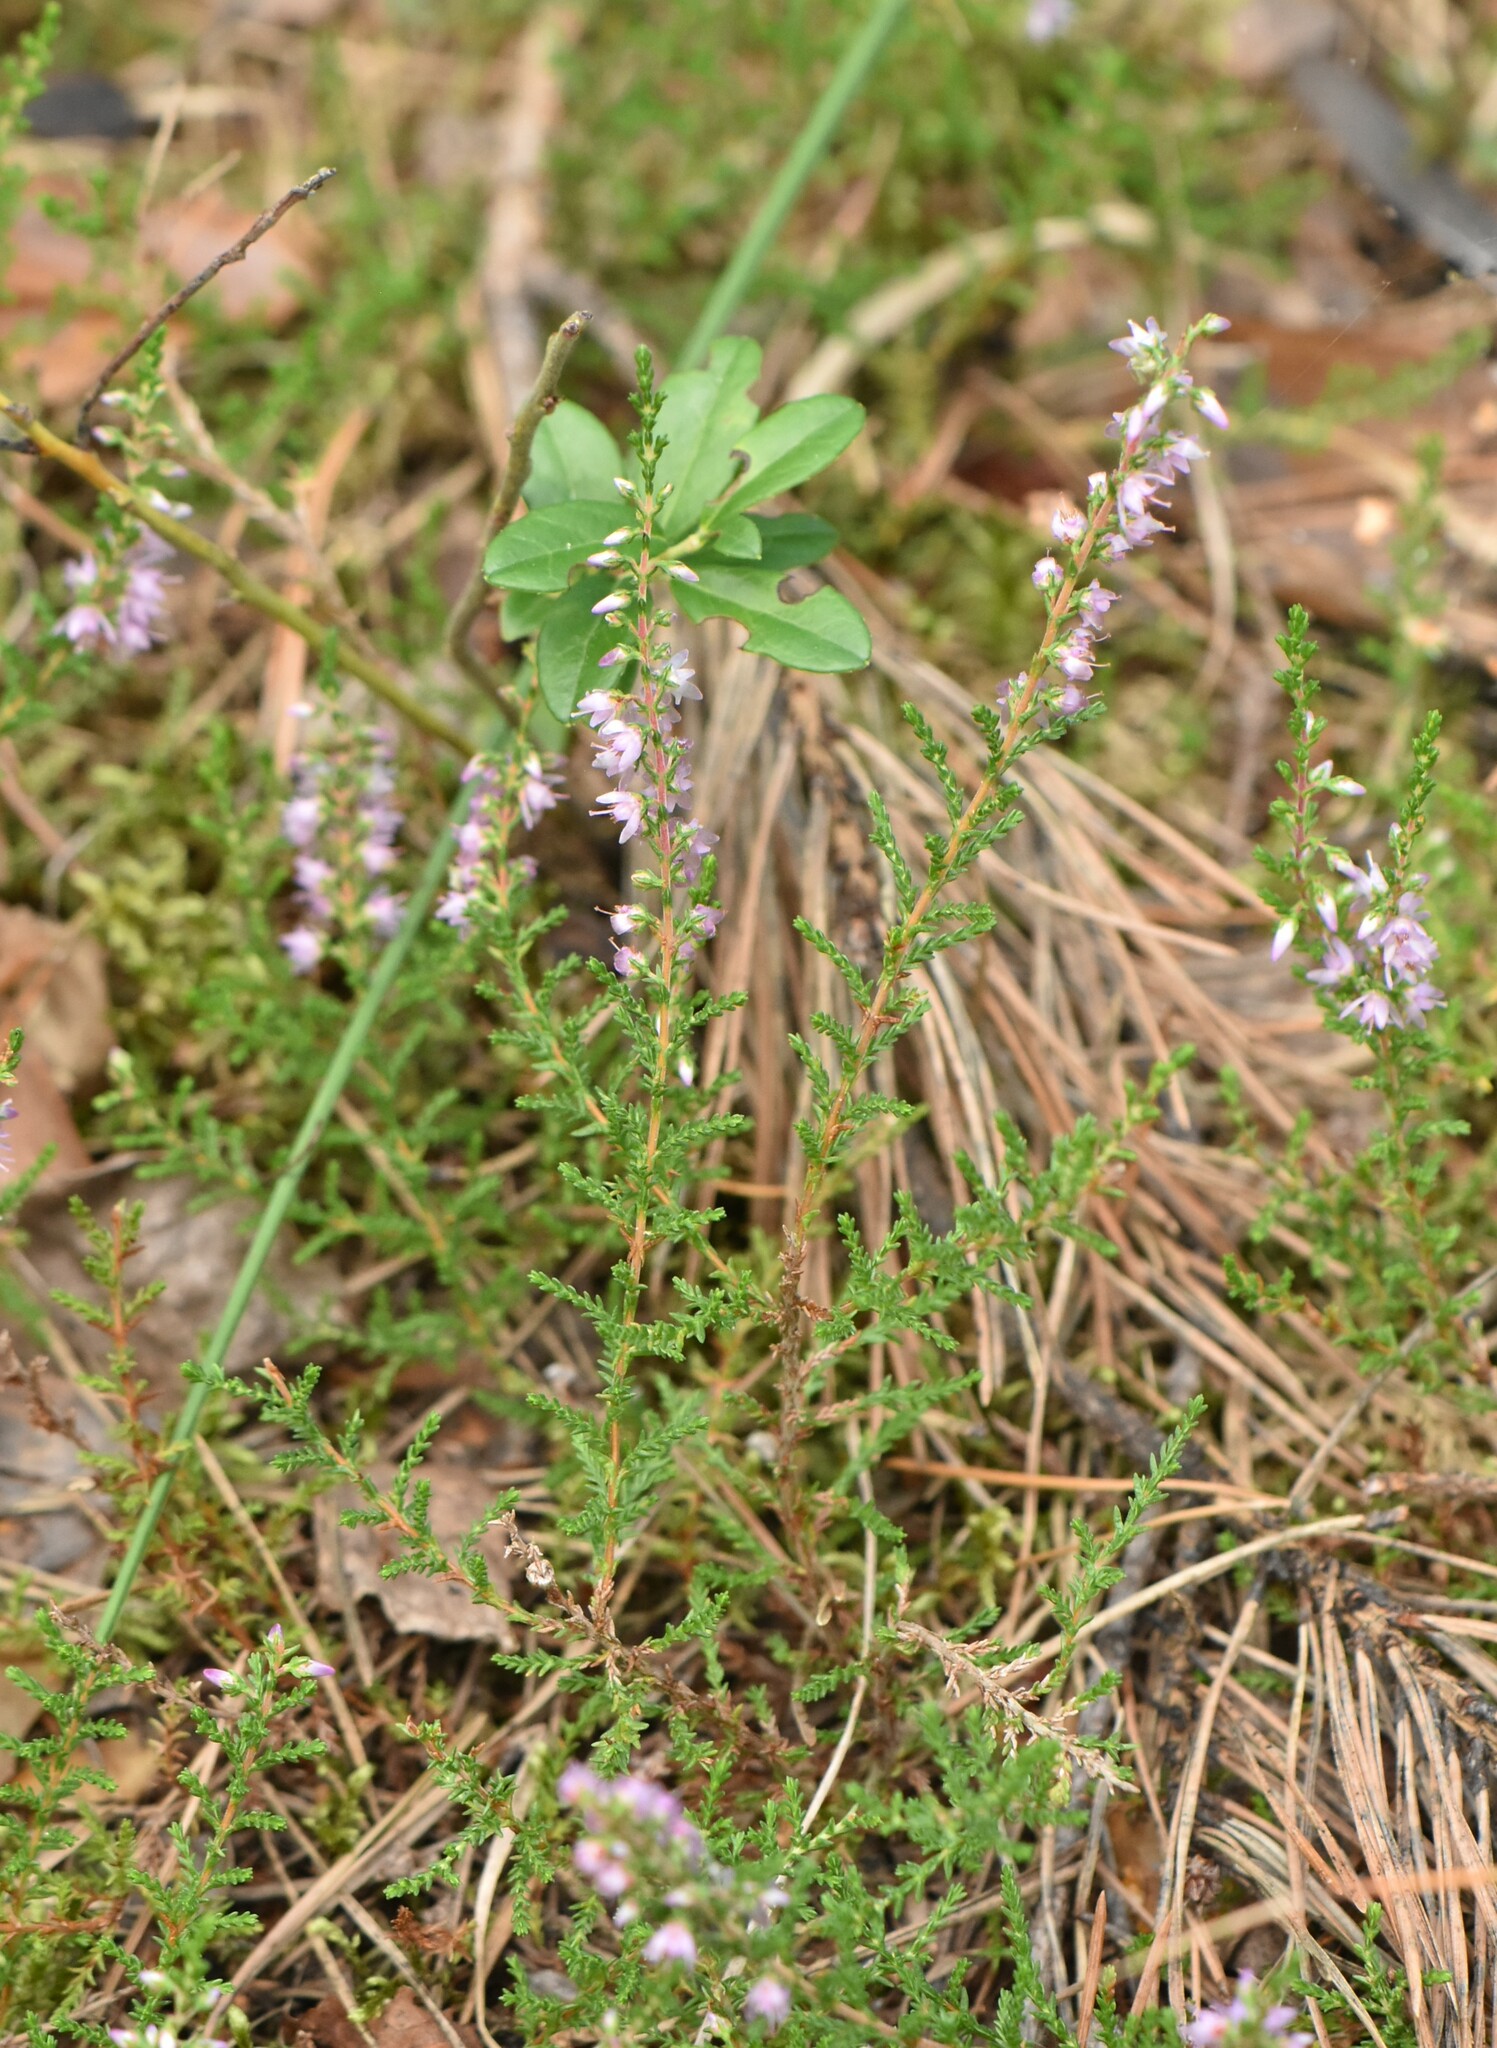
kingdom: Plantae
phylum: Tracheophyta
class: Magnoliopsida
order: Ericales
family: Ericaceae
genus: Calluna
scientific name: Calluna vulgaris
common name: Heather
